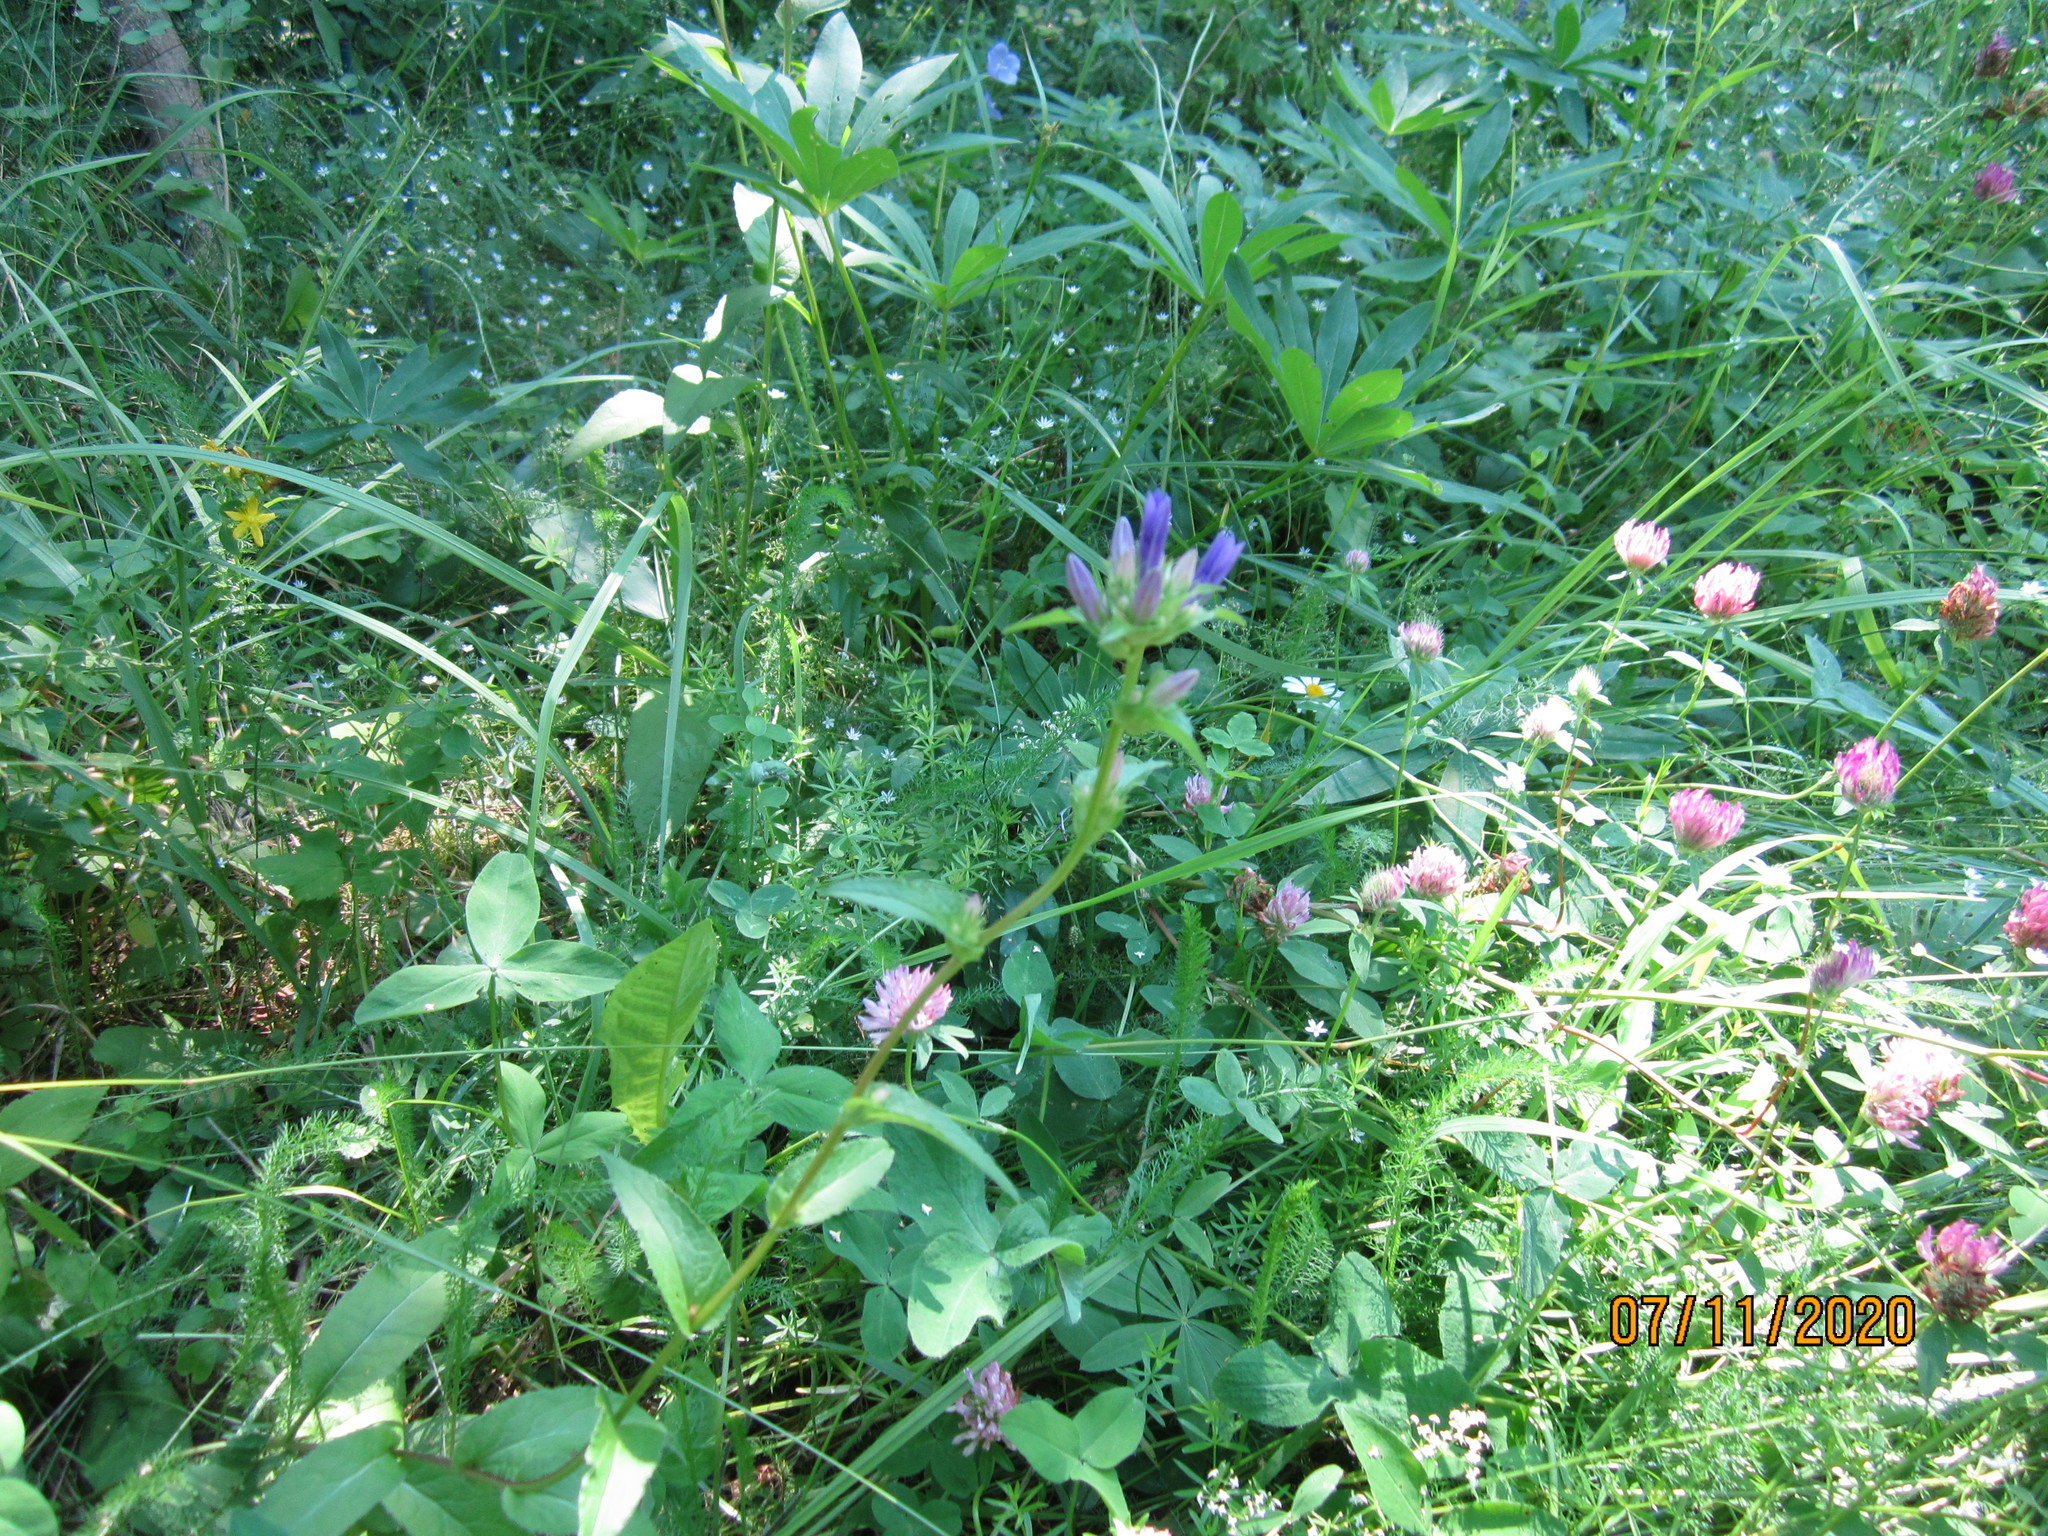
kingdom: Plantae
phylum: Tracheophyta
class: Magnoliopsida
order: Asterales
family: Campanulaceae
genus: Campanula
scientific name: Campanula glomerata
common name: Clustered bellflower
